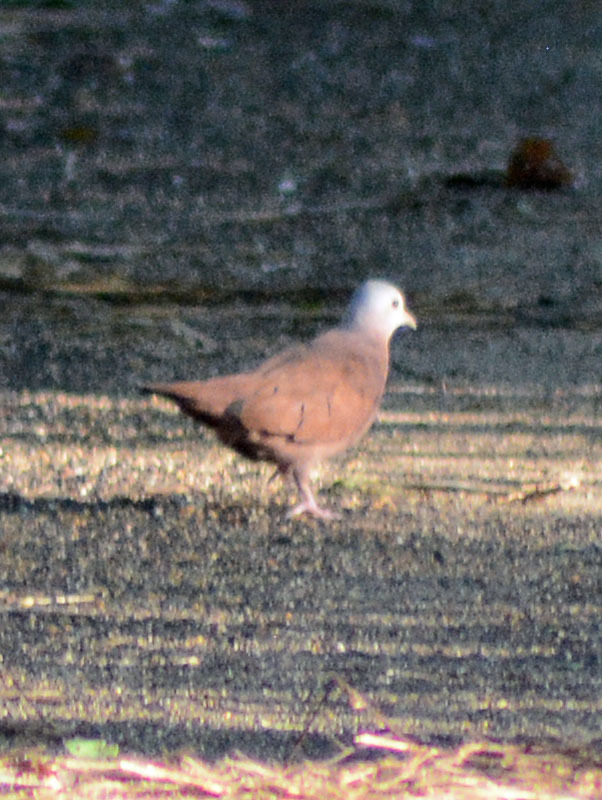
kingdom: Animalia
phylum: Chordata
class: Aves
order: Columbiformes
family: Columbidae
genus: Columbina
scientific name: Columbina talpacoti
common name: Ruddy ground dove
